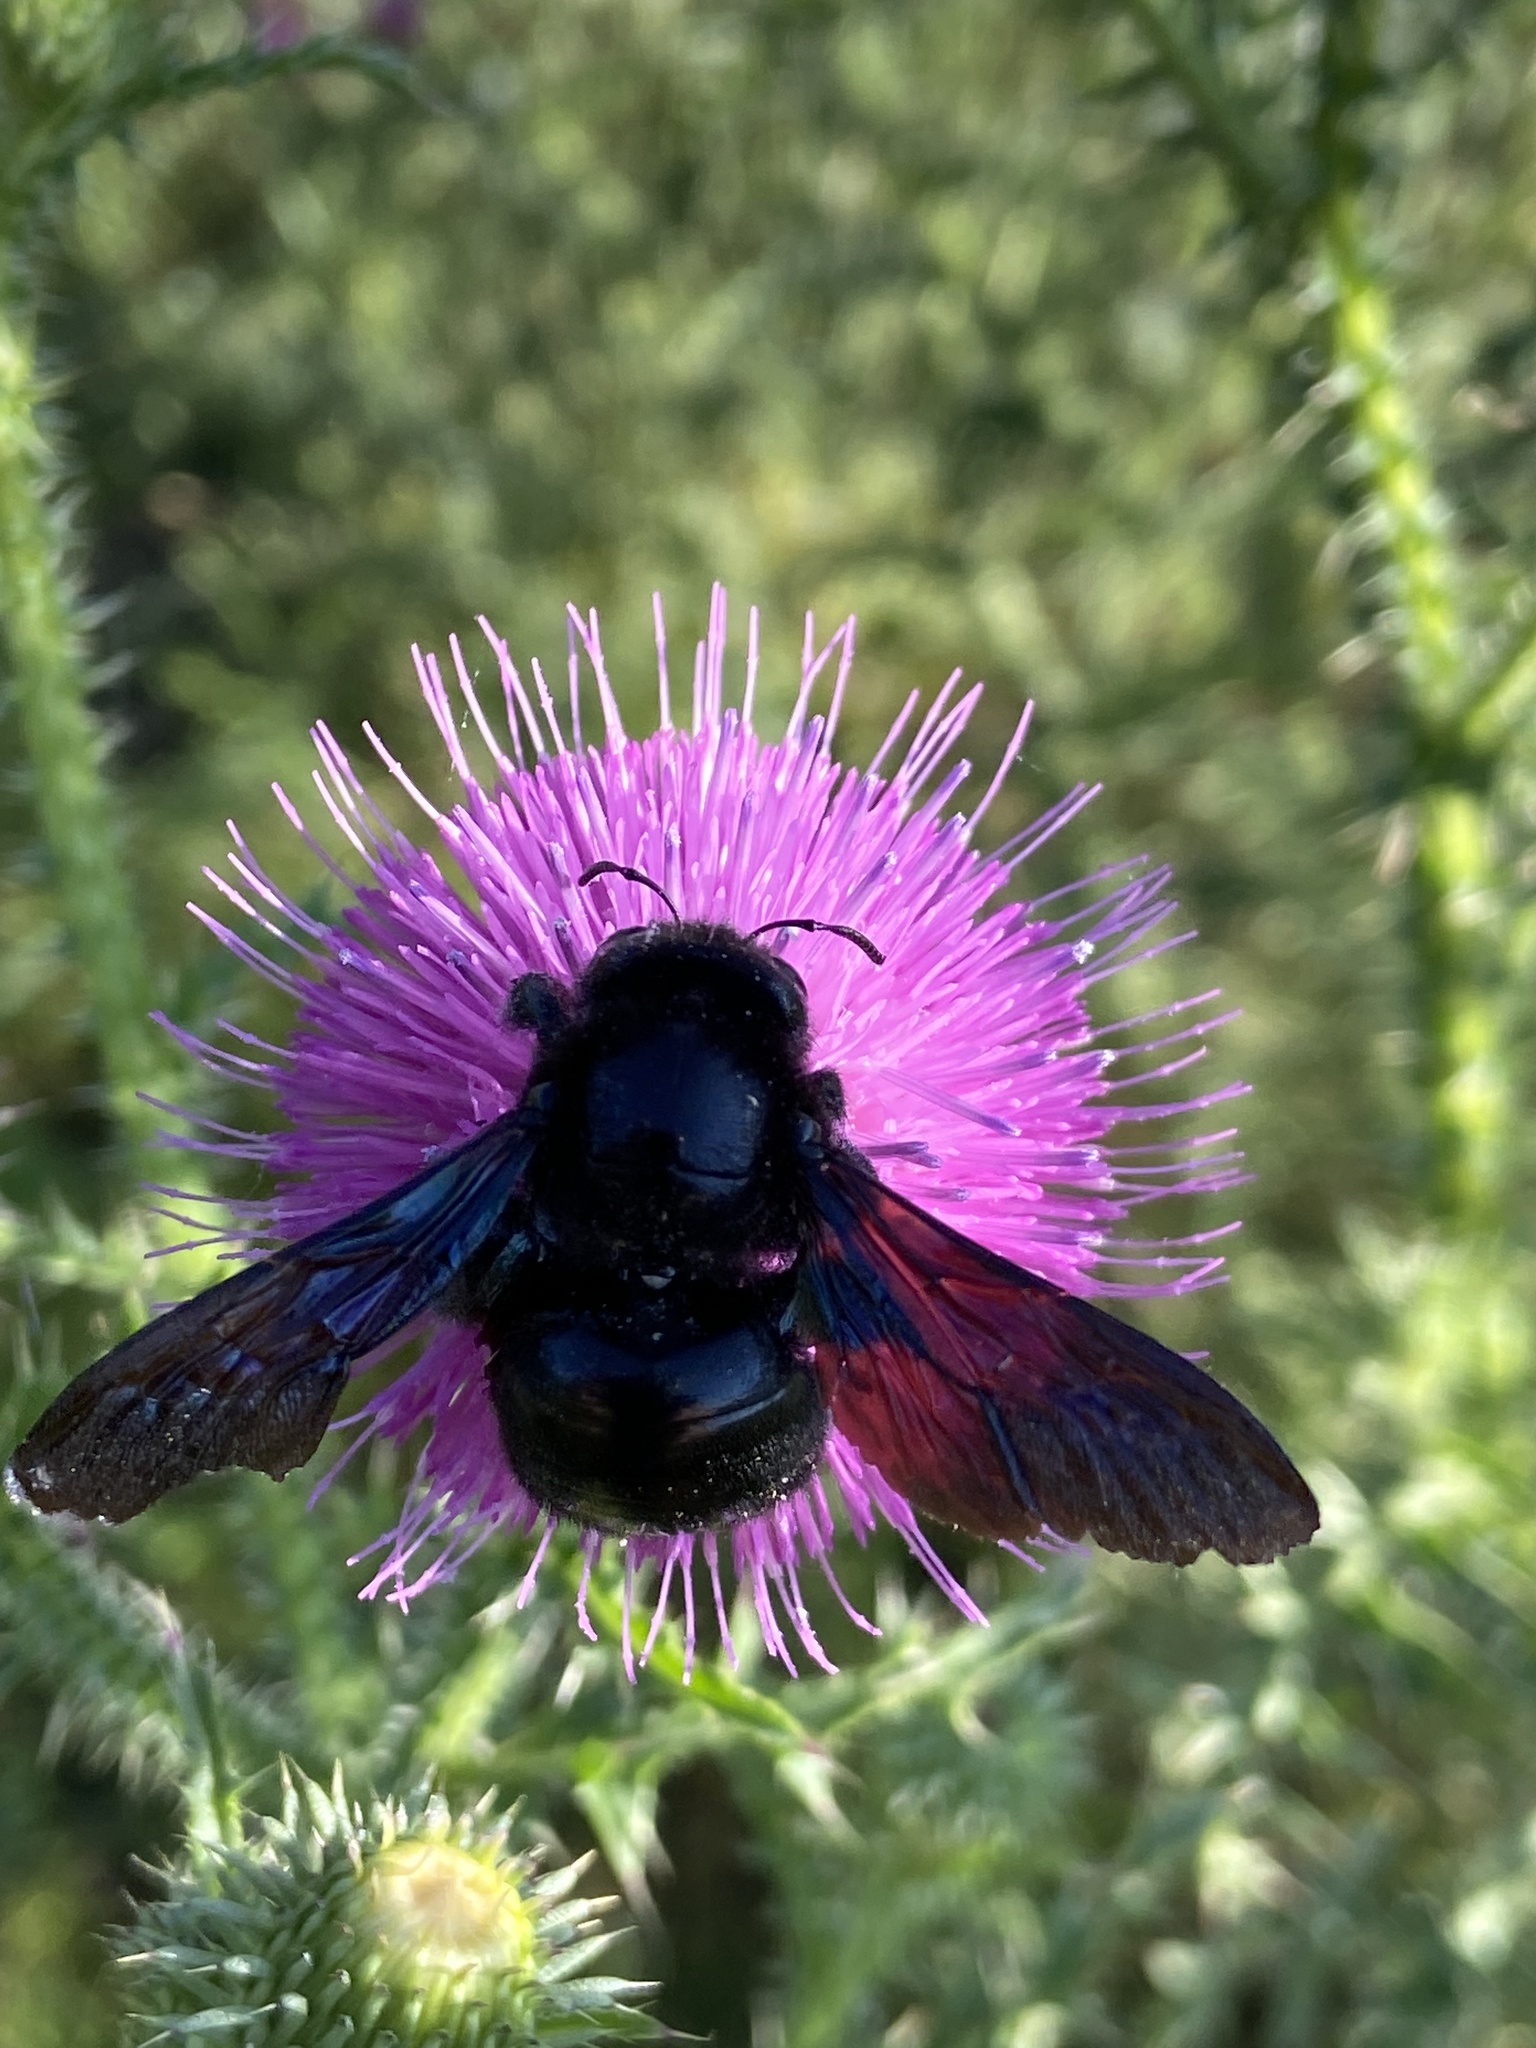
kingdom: Animalia
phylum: Arthropoda
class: Insecta
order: Hymenoptera
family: Apidae
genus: Xylocopa
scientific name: Xylocopa violacea
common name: Violet carpenter bee
